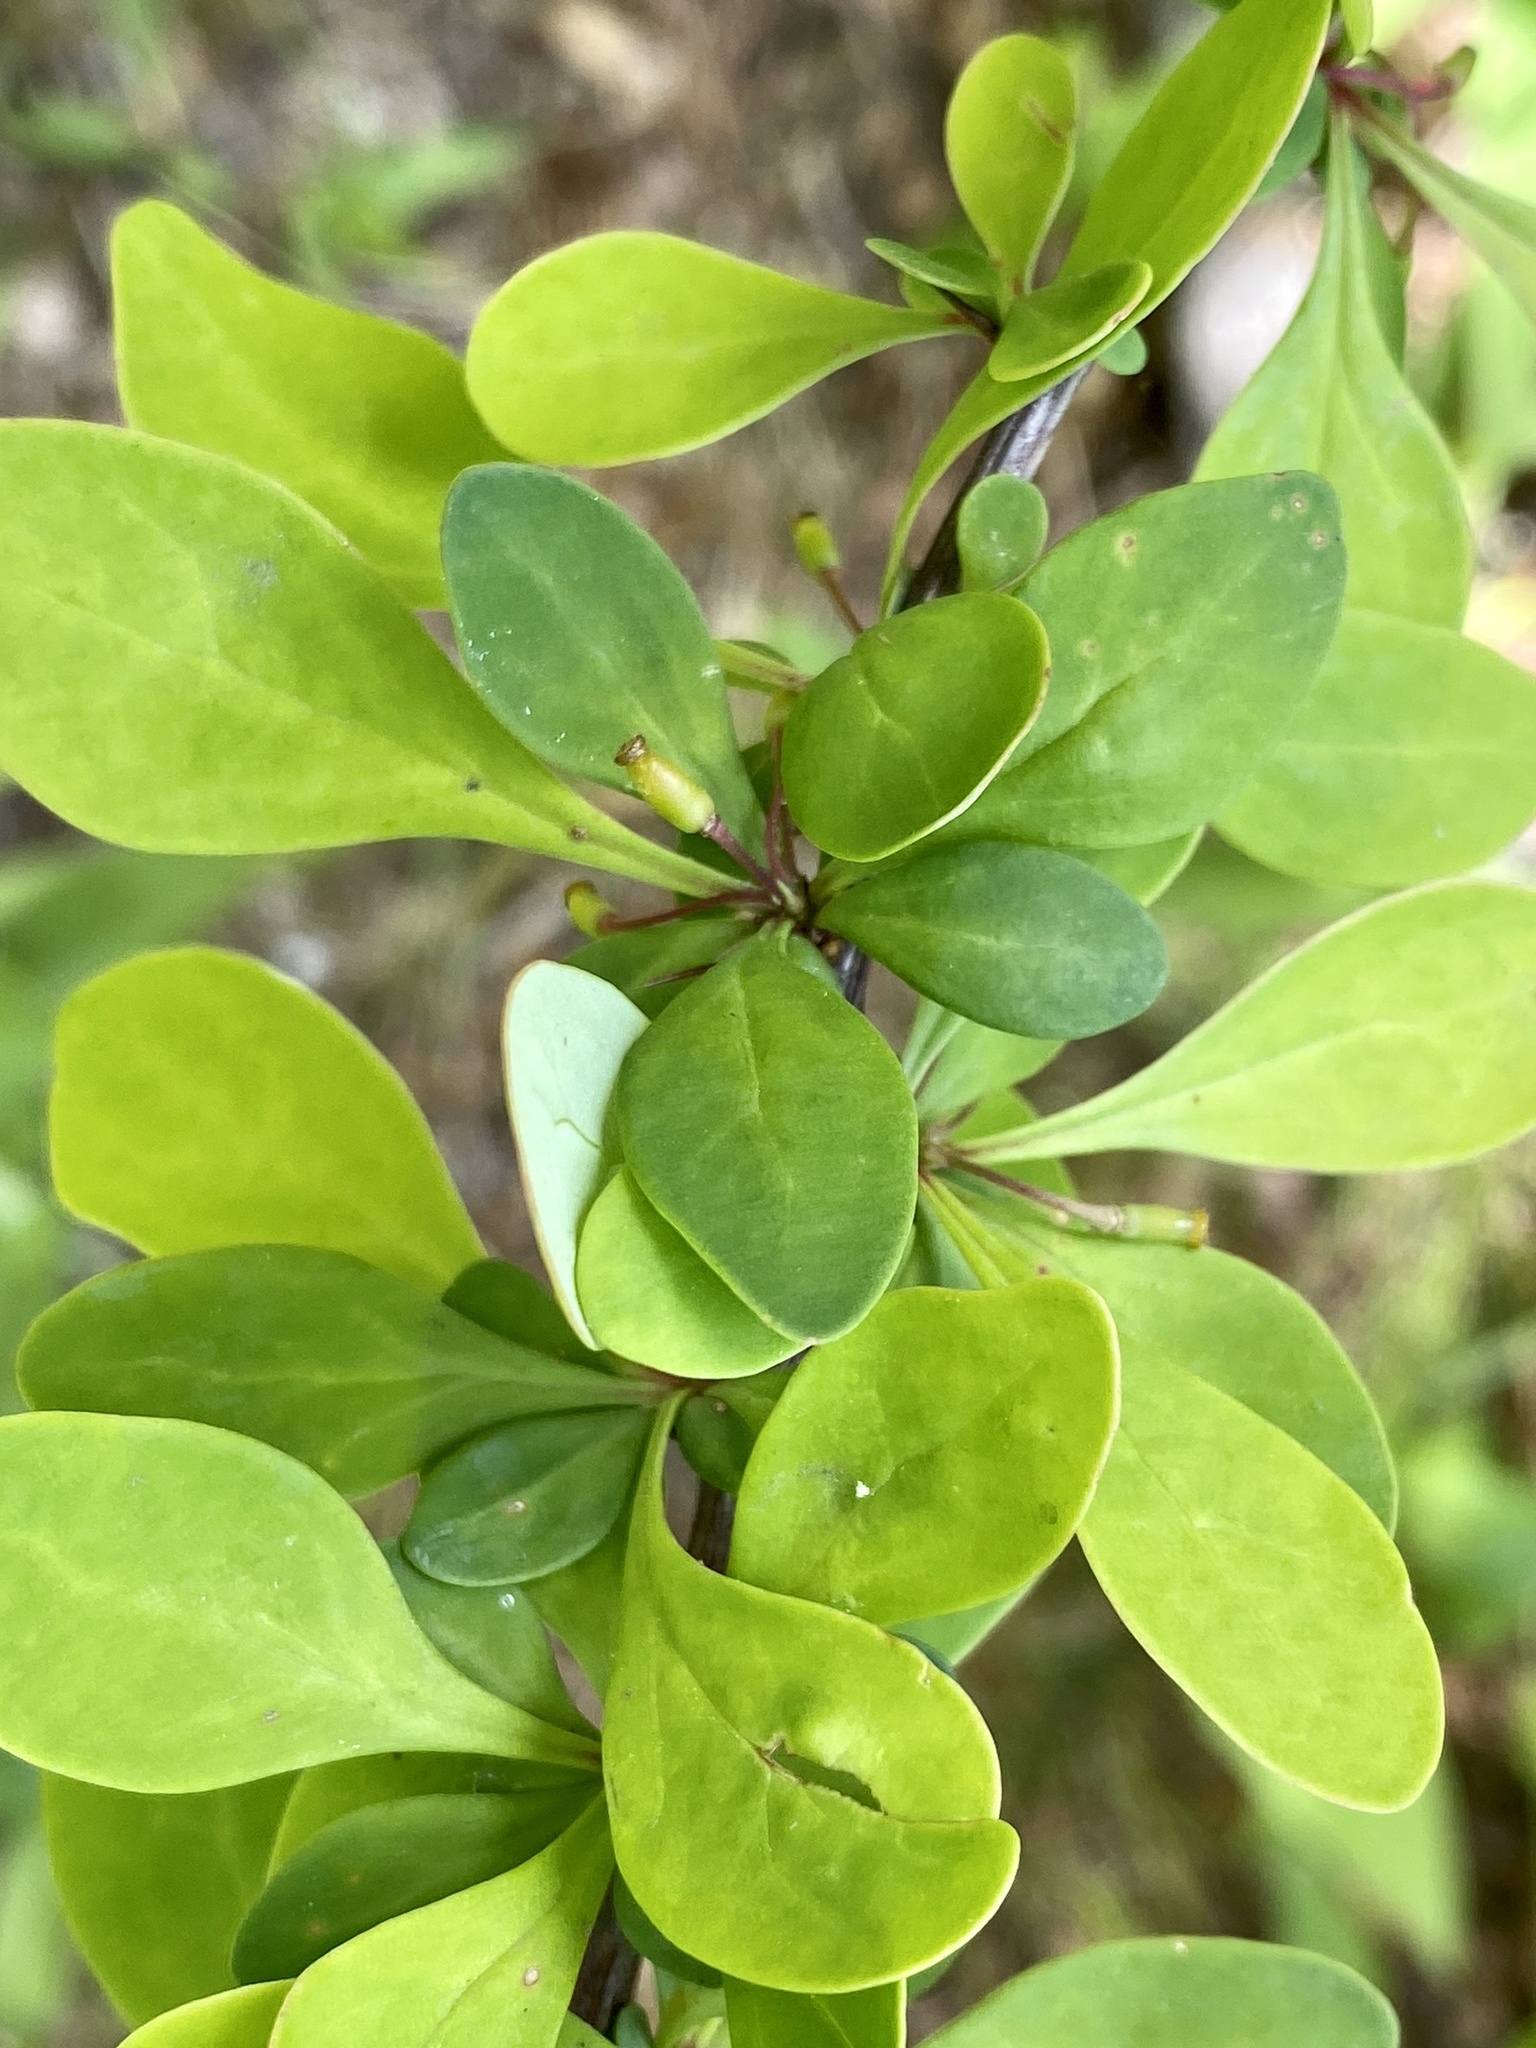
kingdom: Plantae
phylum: Tracheophyta
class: Magnoliopsida
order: Ranunculales
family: Berberidaceae
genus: Berberis
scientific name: Berberis thunbergii
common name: Japanese barberry
